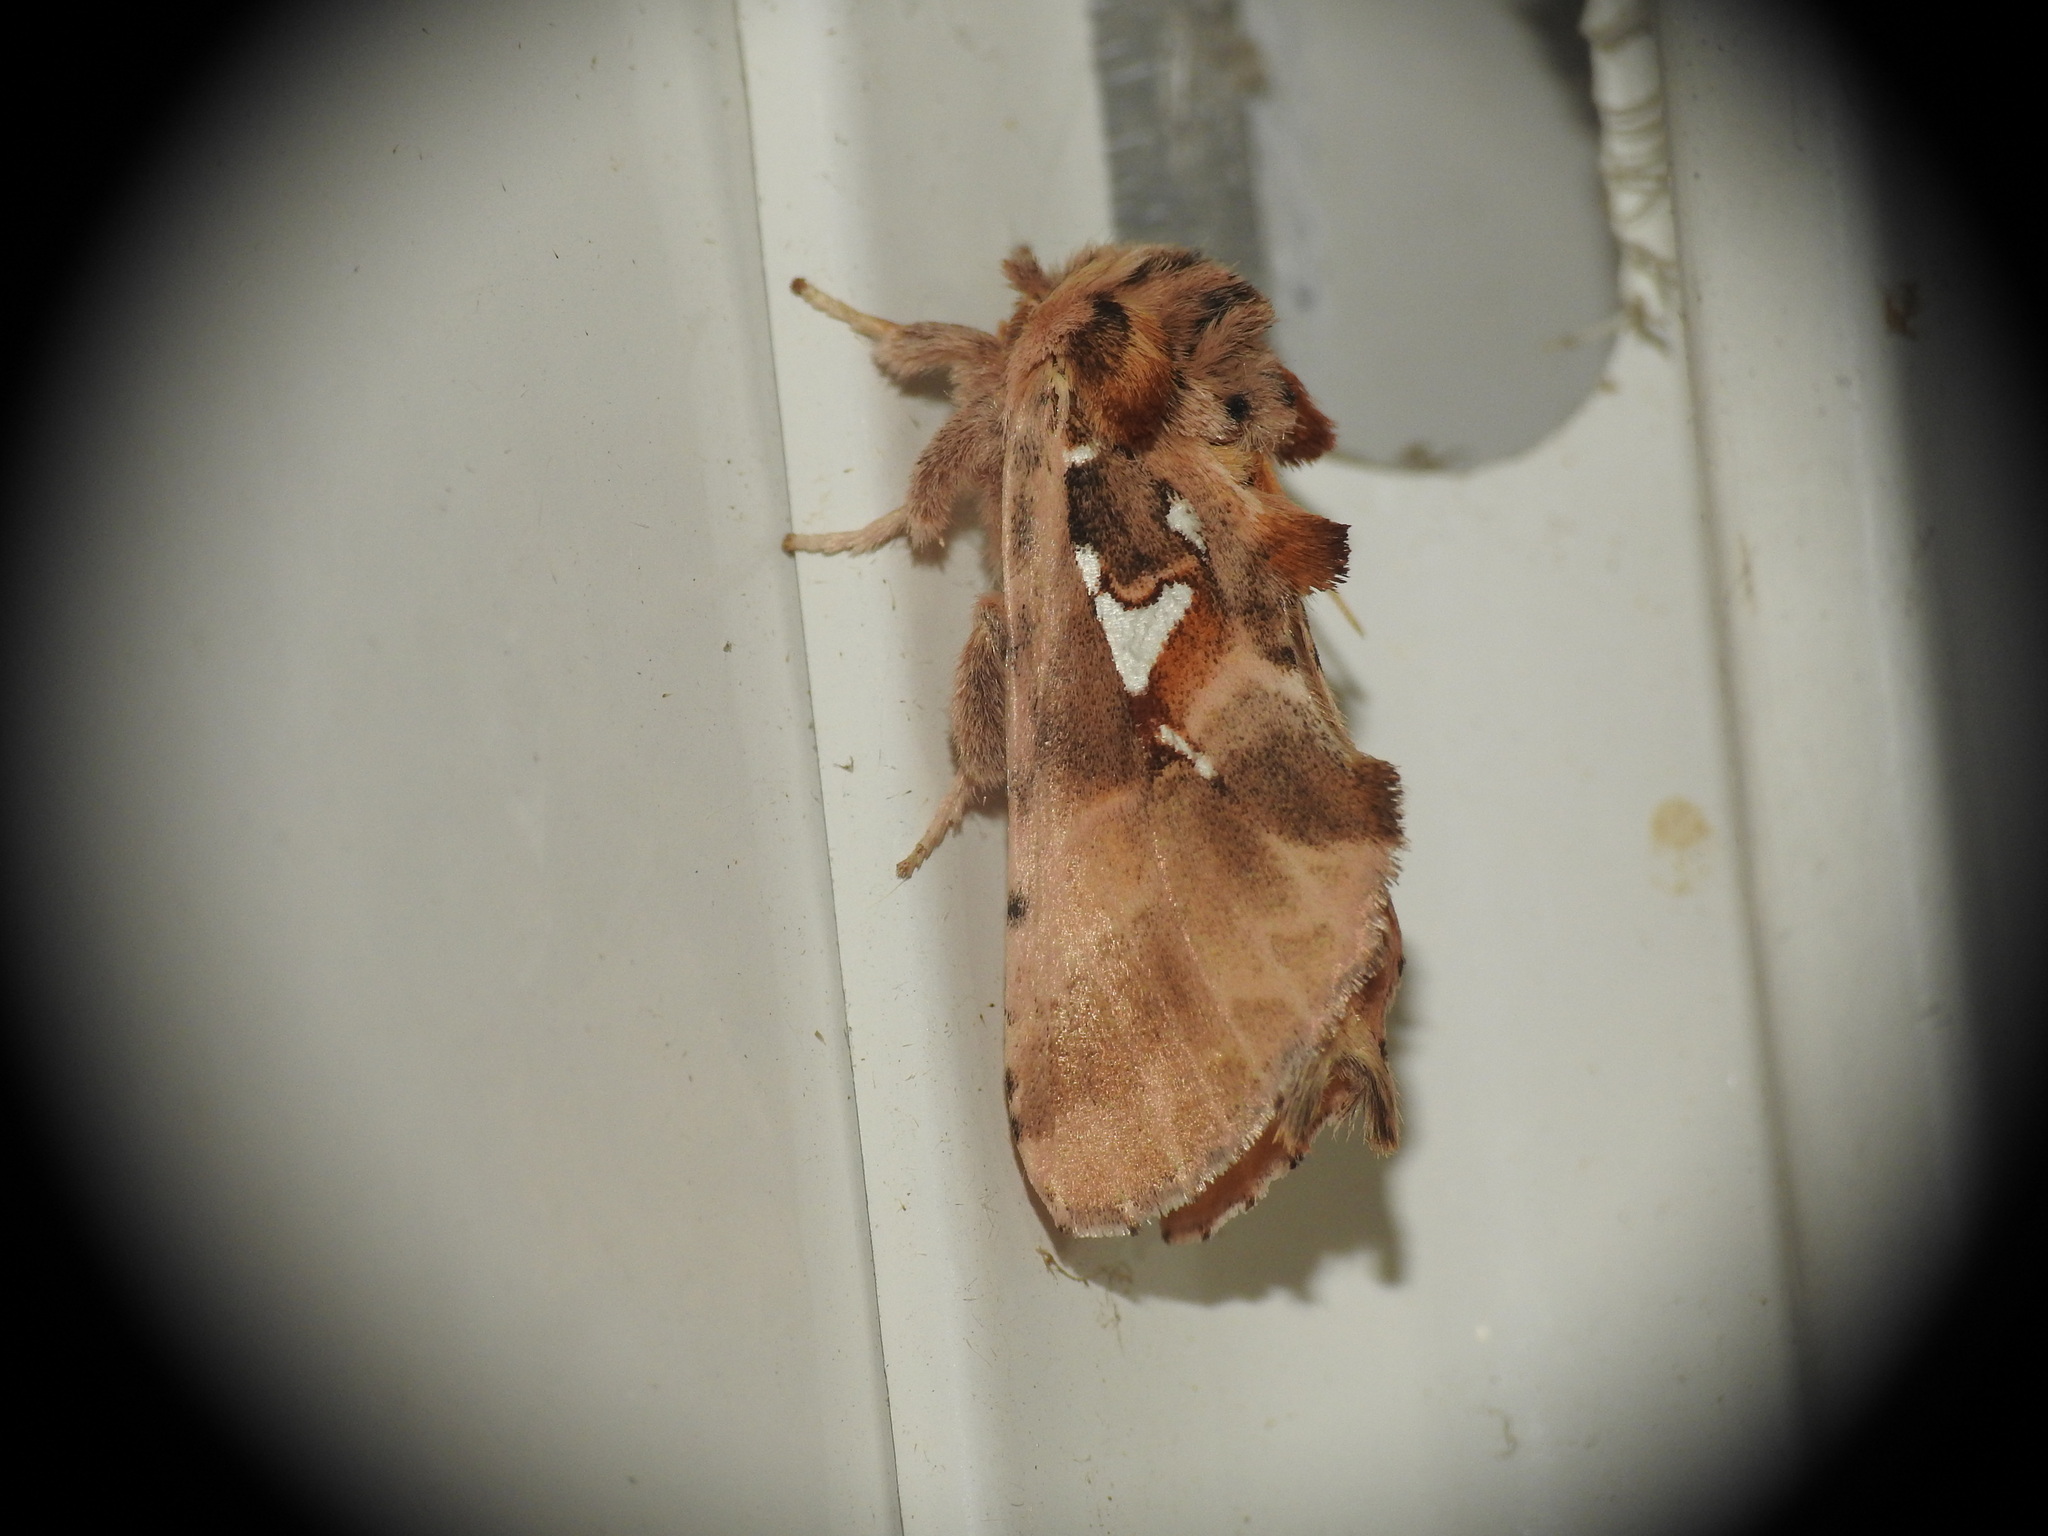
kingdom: Animalia
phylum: Arthropoda
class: Insecta
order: Lepidoptera
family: Notodontidae
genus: Spatalia
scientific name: Spatalia argentina
